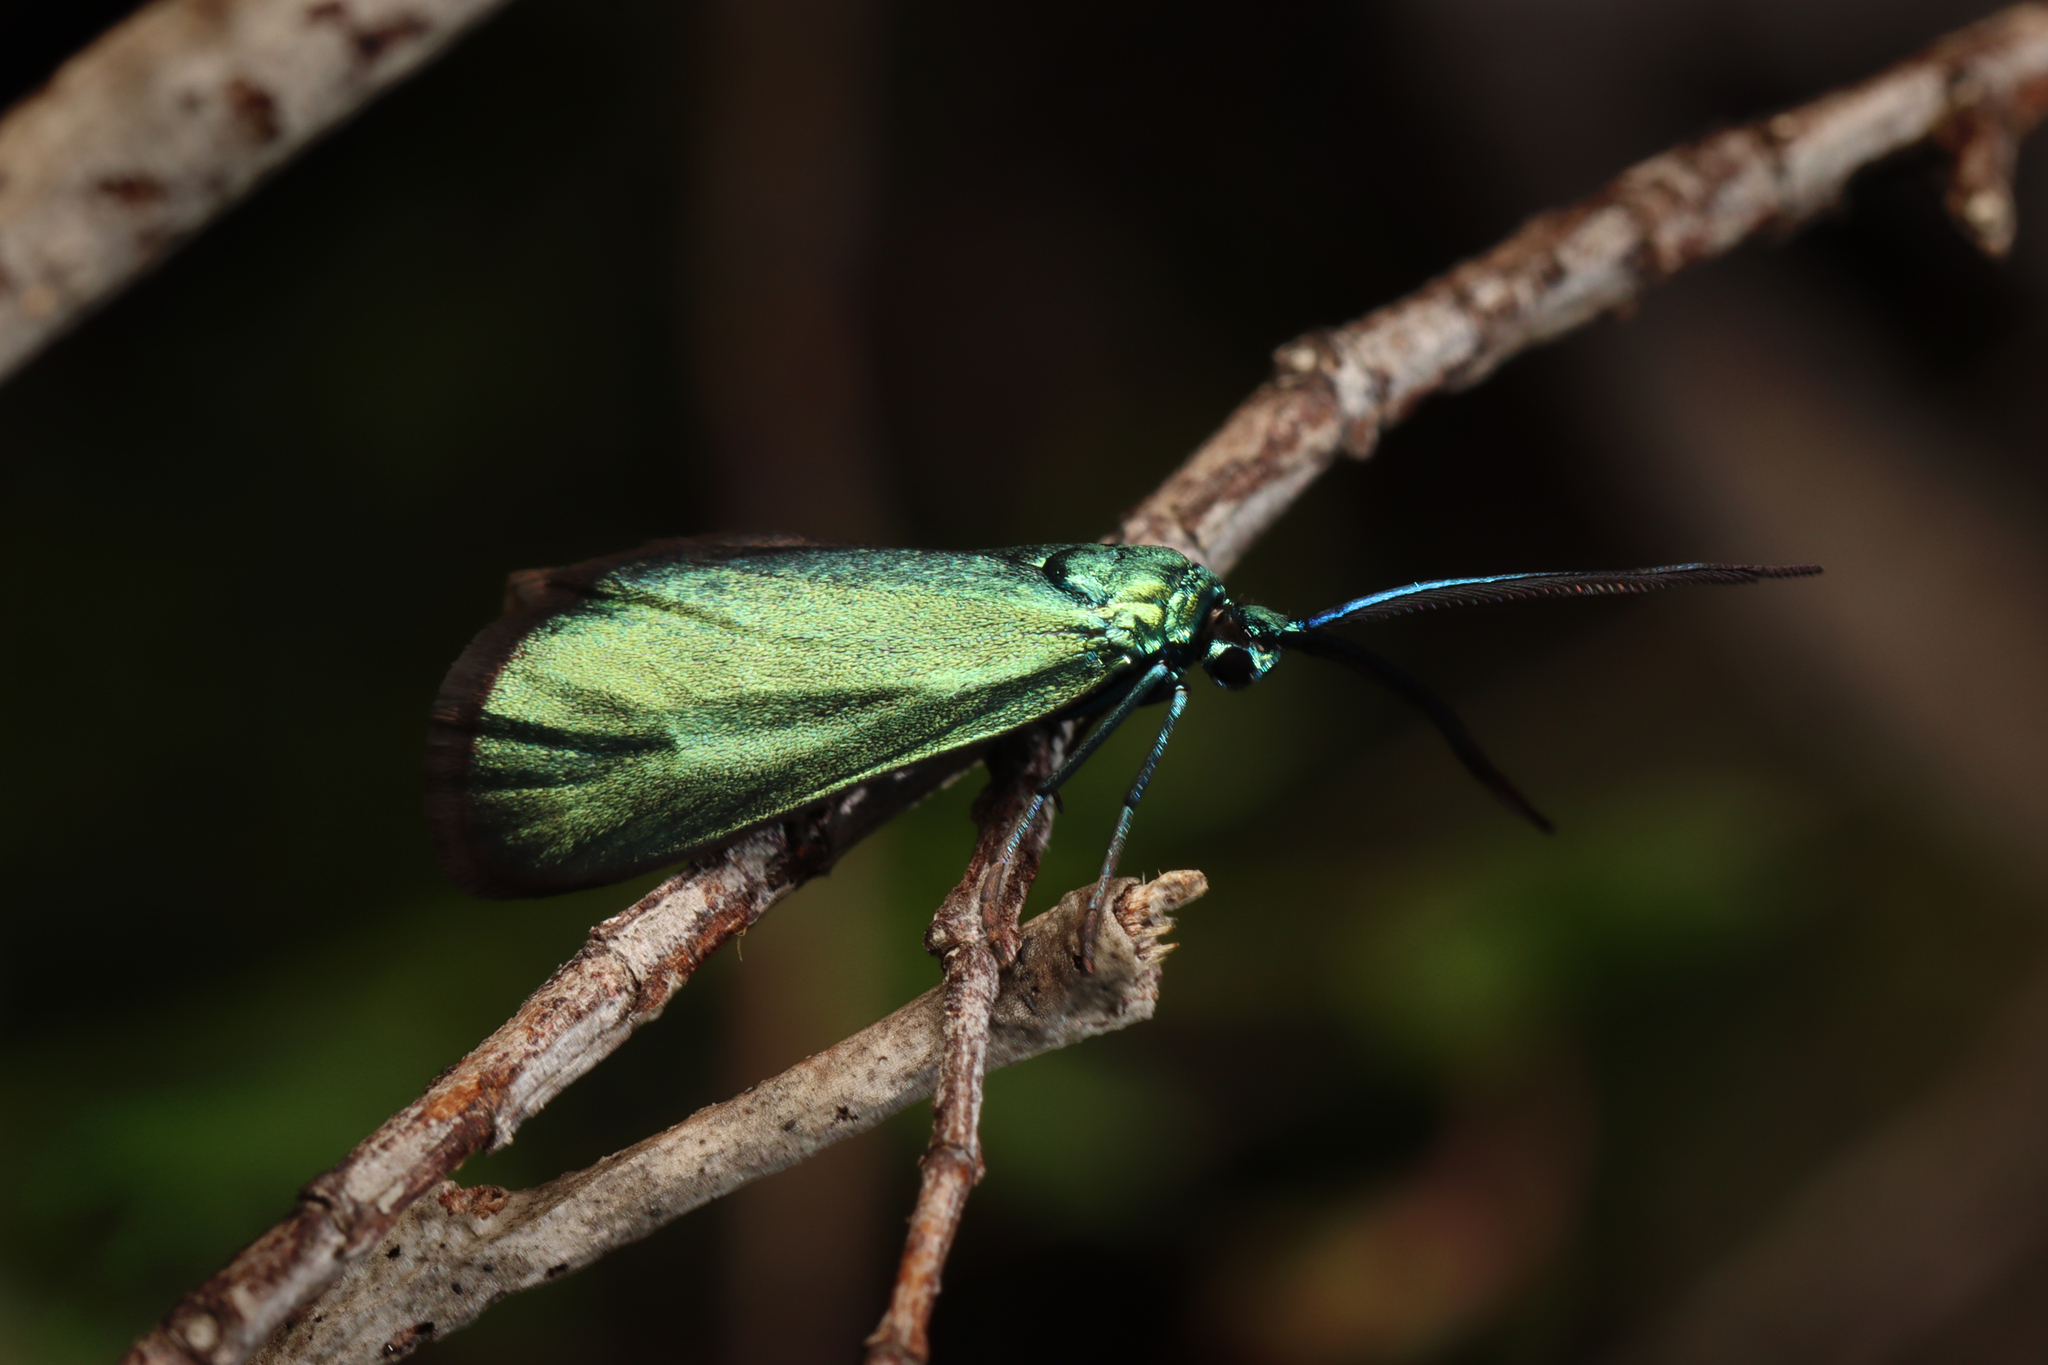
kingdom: Animalia
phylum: Arthropoda
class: Insecta
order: Lepidoptera
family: Zygaenidae
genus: Pollanisus
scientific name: Pollanisus viridipulverulenta
